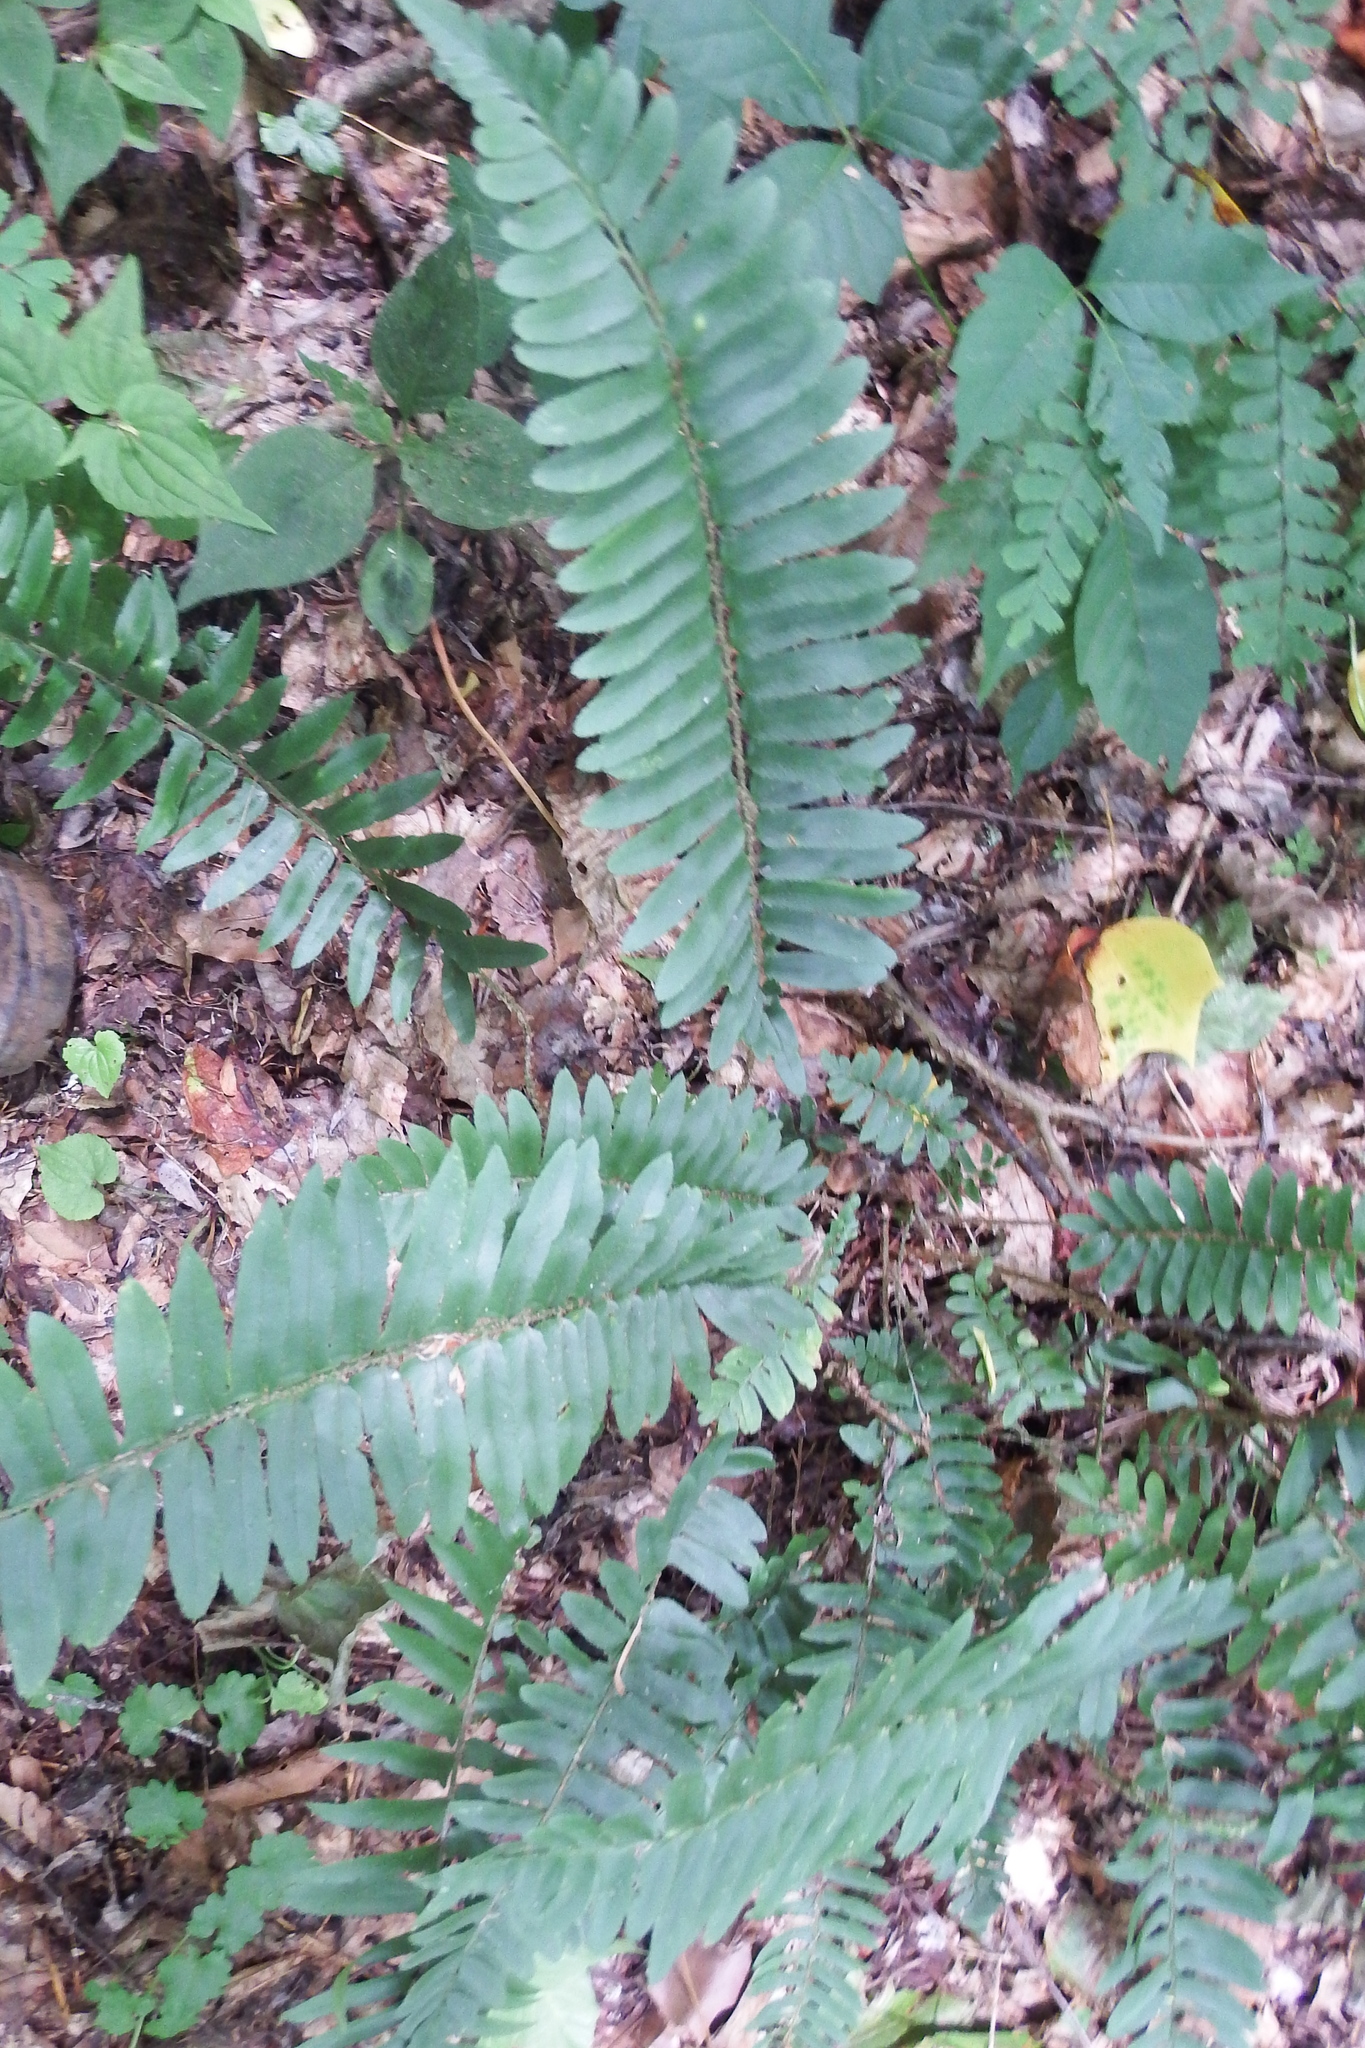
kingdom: Plantae
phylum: Tracheophyta
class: Polypodiopsida
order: Polypodiales
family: Dryopteridaceae
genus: Polystichum
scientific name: Polystichum acrostichoides
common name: Christmas fern
